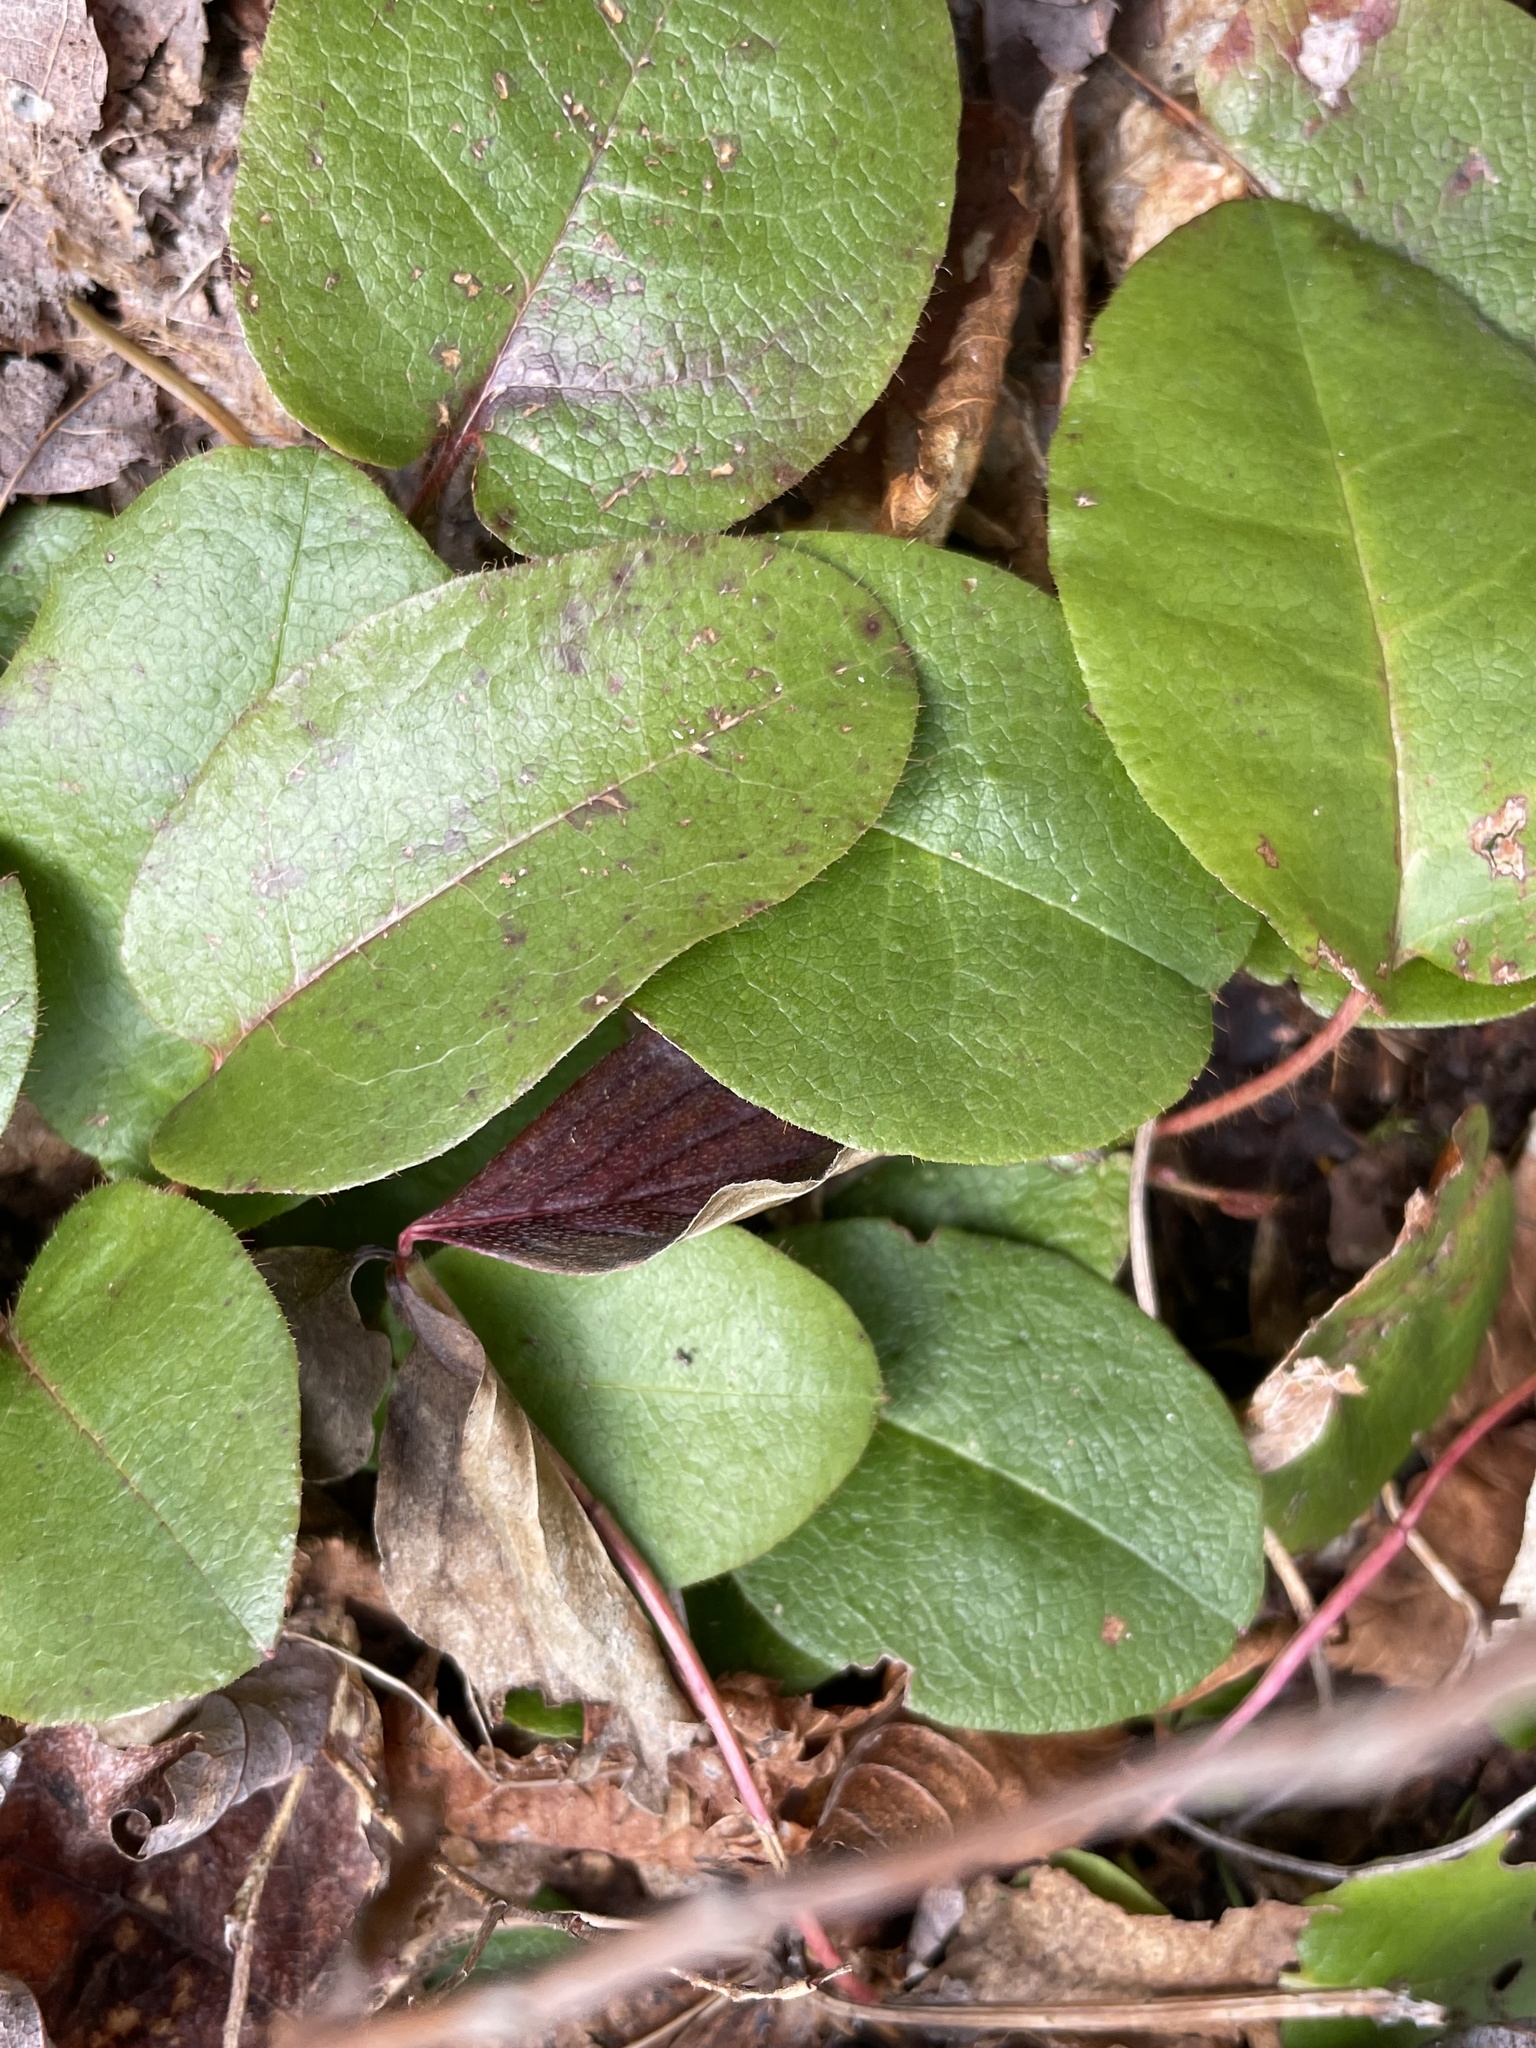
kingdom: Plantae
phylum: Tracheophyta
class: Magnoliopsida
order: Ericales
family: Ericaceae
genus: Epigaea
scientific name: Epigaea repens
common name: Gravelroot
